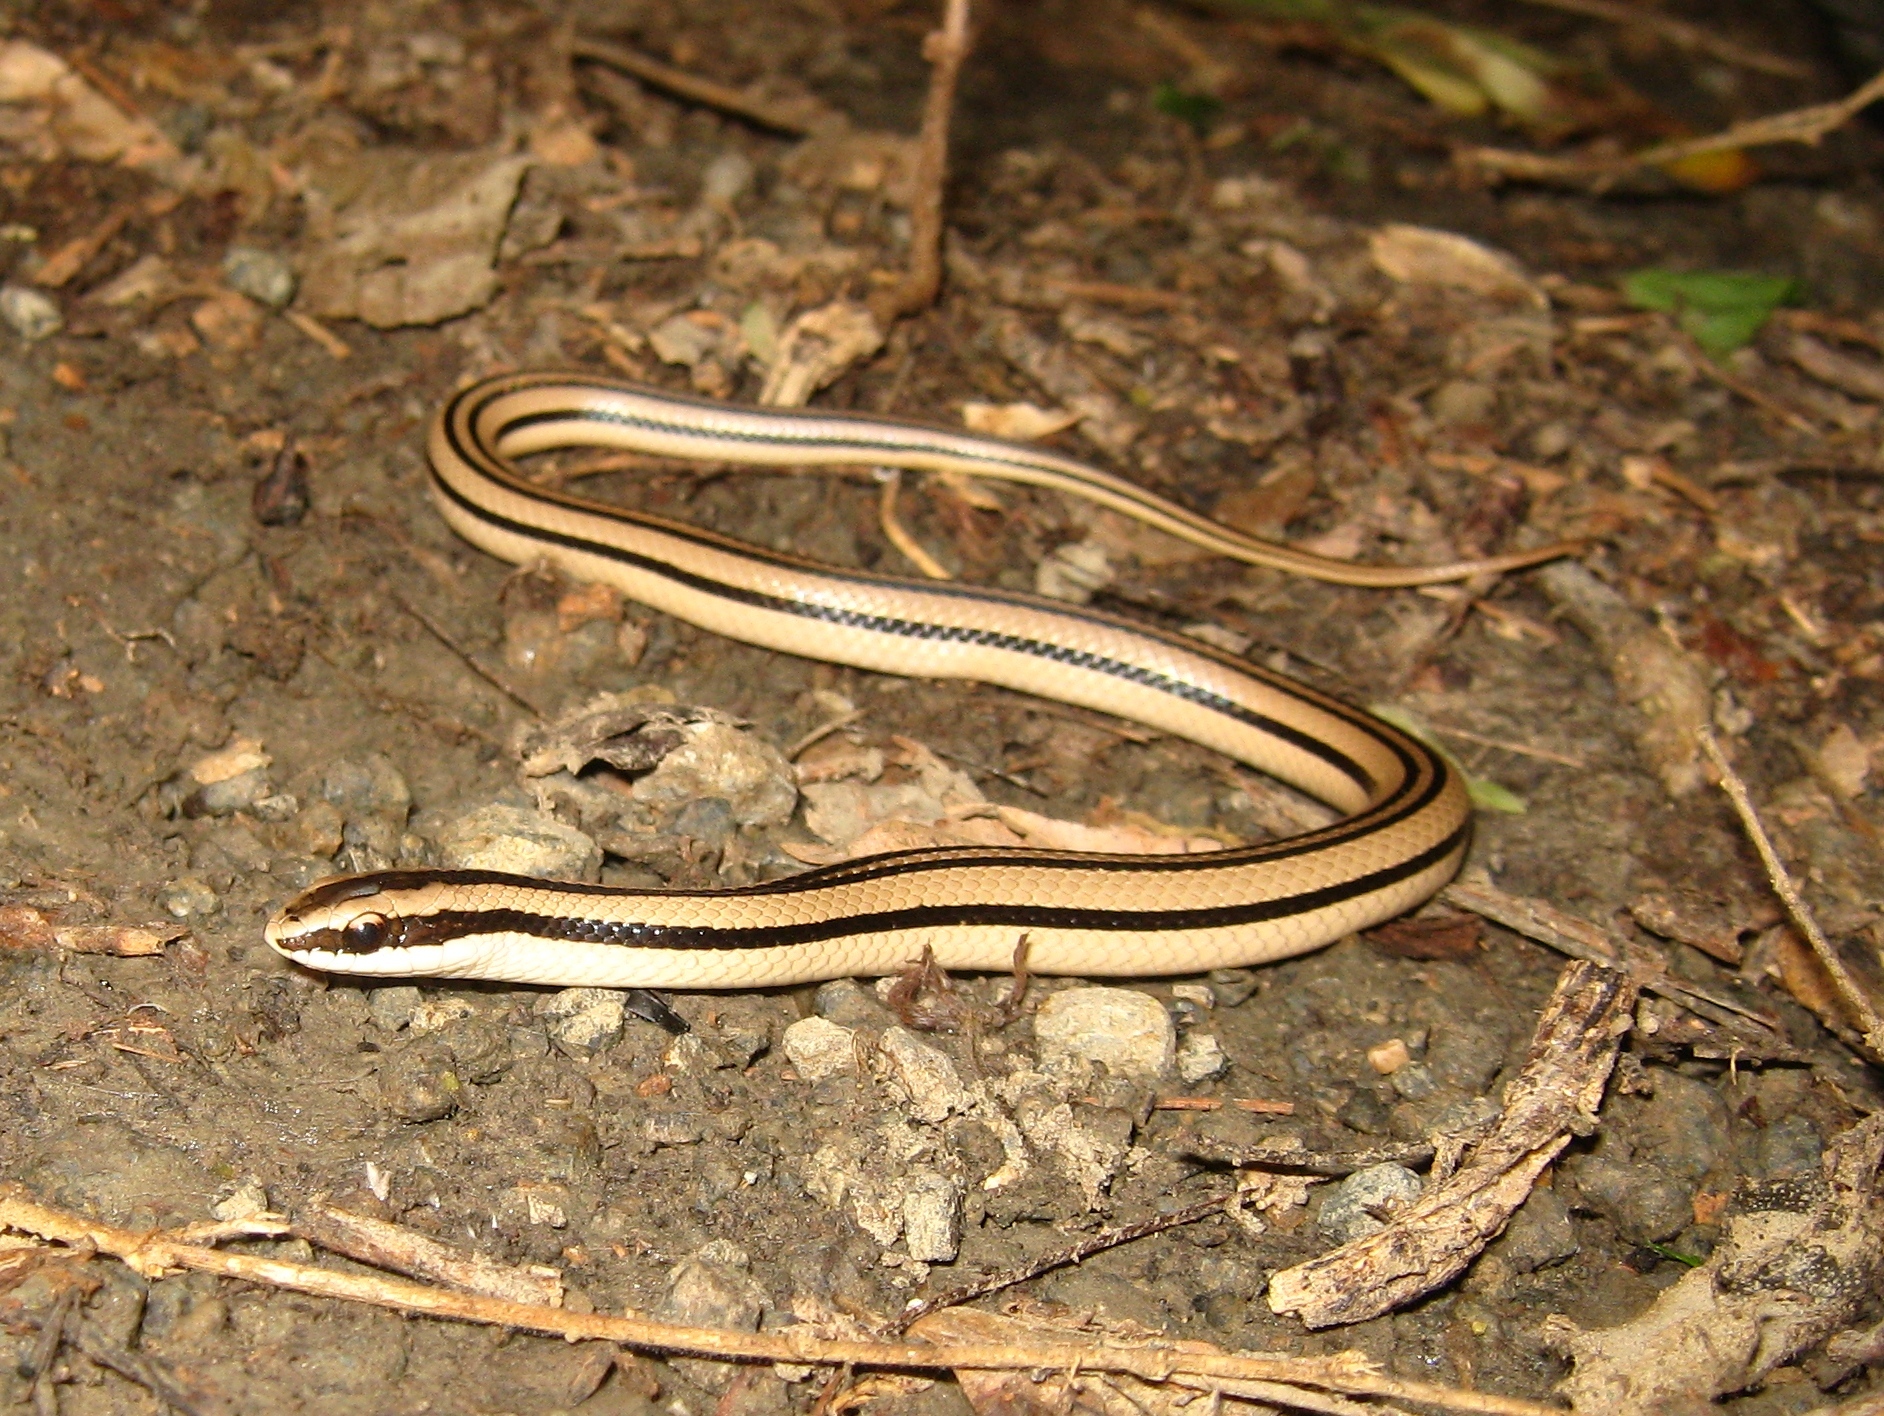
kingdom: Animalia
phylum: Chordata
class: Squamata
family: Colubridae
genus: Conophis
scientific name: Conophis vittatus
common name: Striped road guarder
